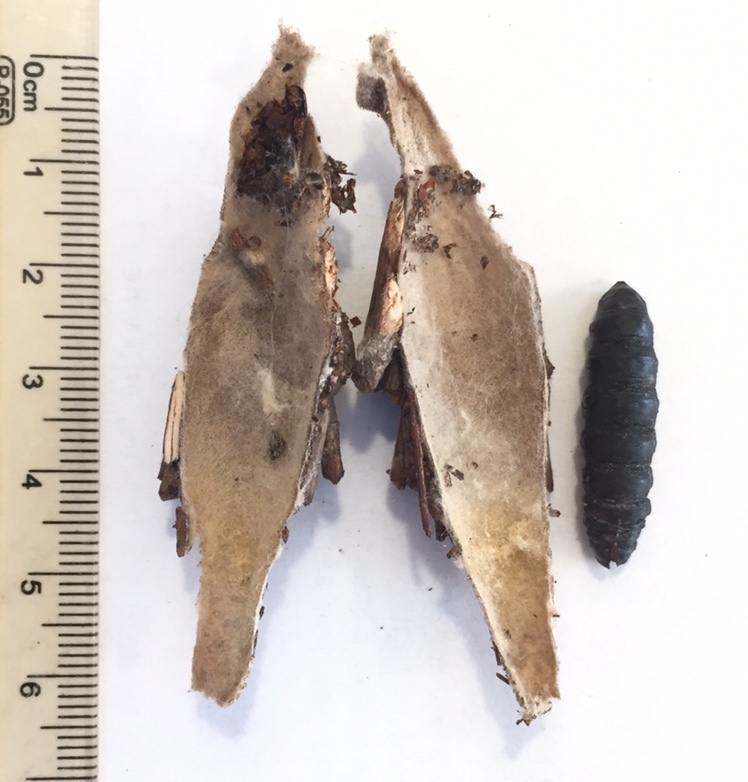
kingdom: Animalia
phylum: Arthropoda
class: Insecta
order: Lepidoptera
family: Psychidae
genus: Thyridopteryx
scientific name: Thyridopteryx ephemeraeformis
